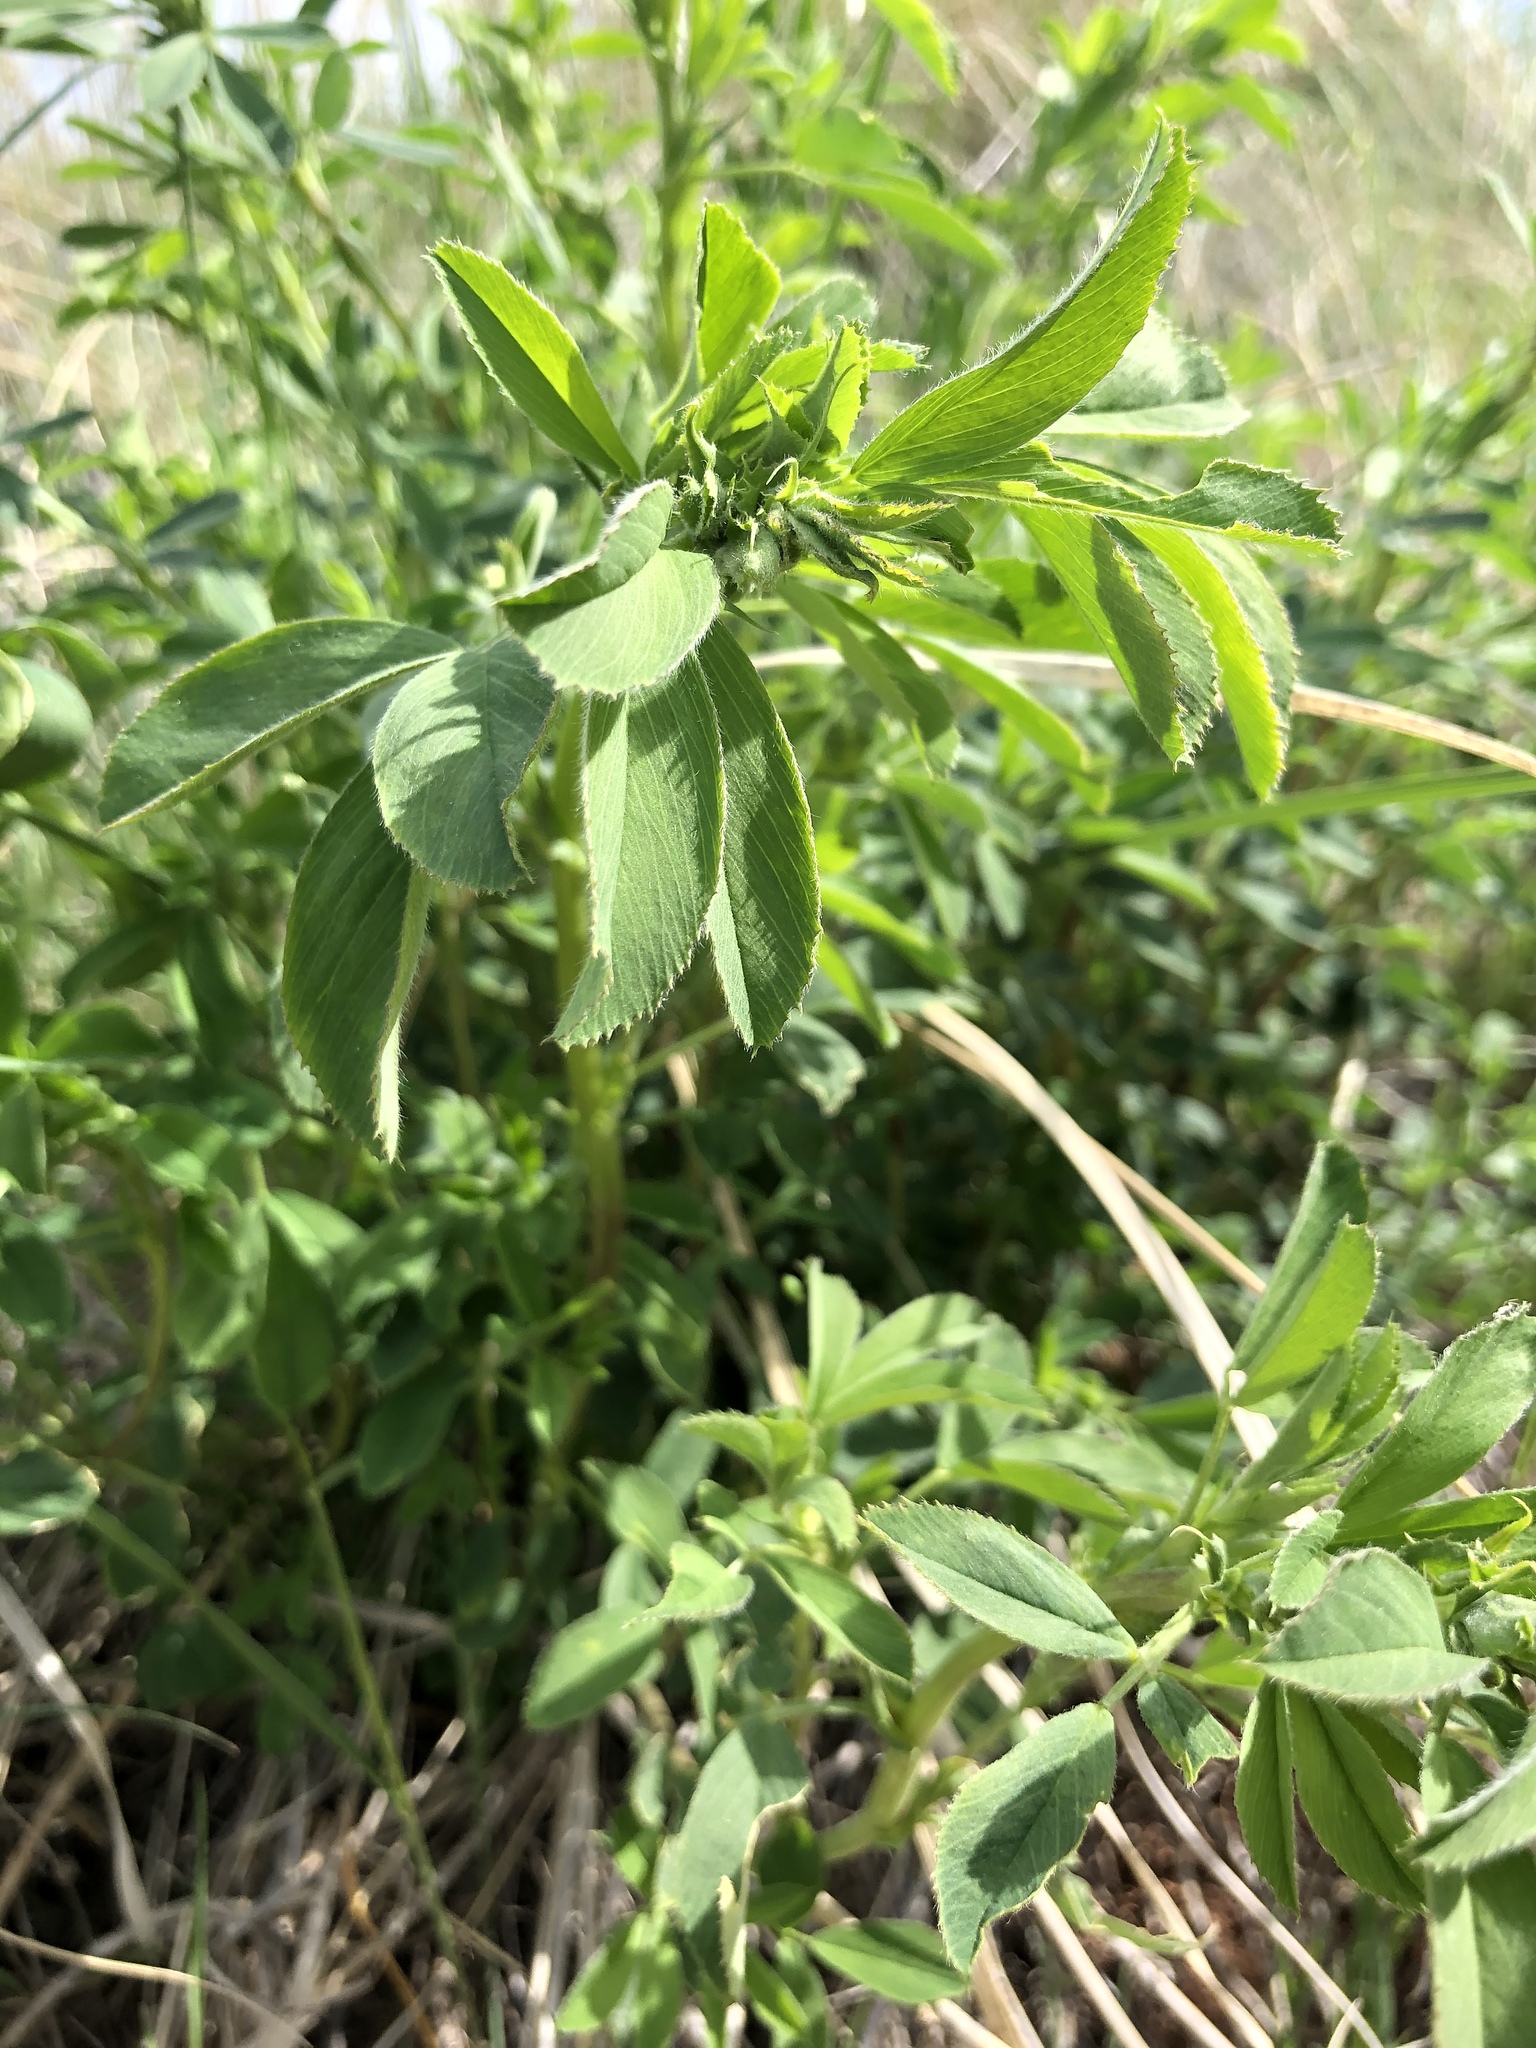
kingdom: Plantae
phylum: Tracheophyta
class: Magnoliopsida
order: Fabales
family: Fabaceae
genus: Medicago
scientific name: Medicago sativa
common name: Alfalfa
